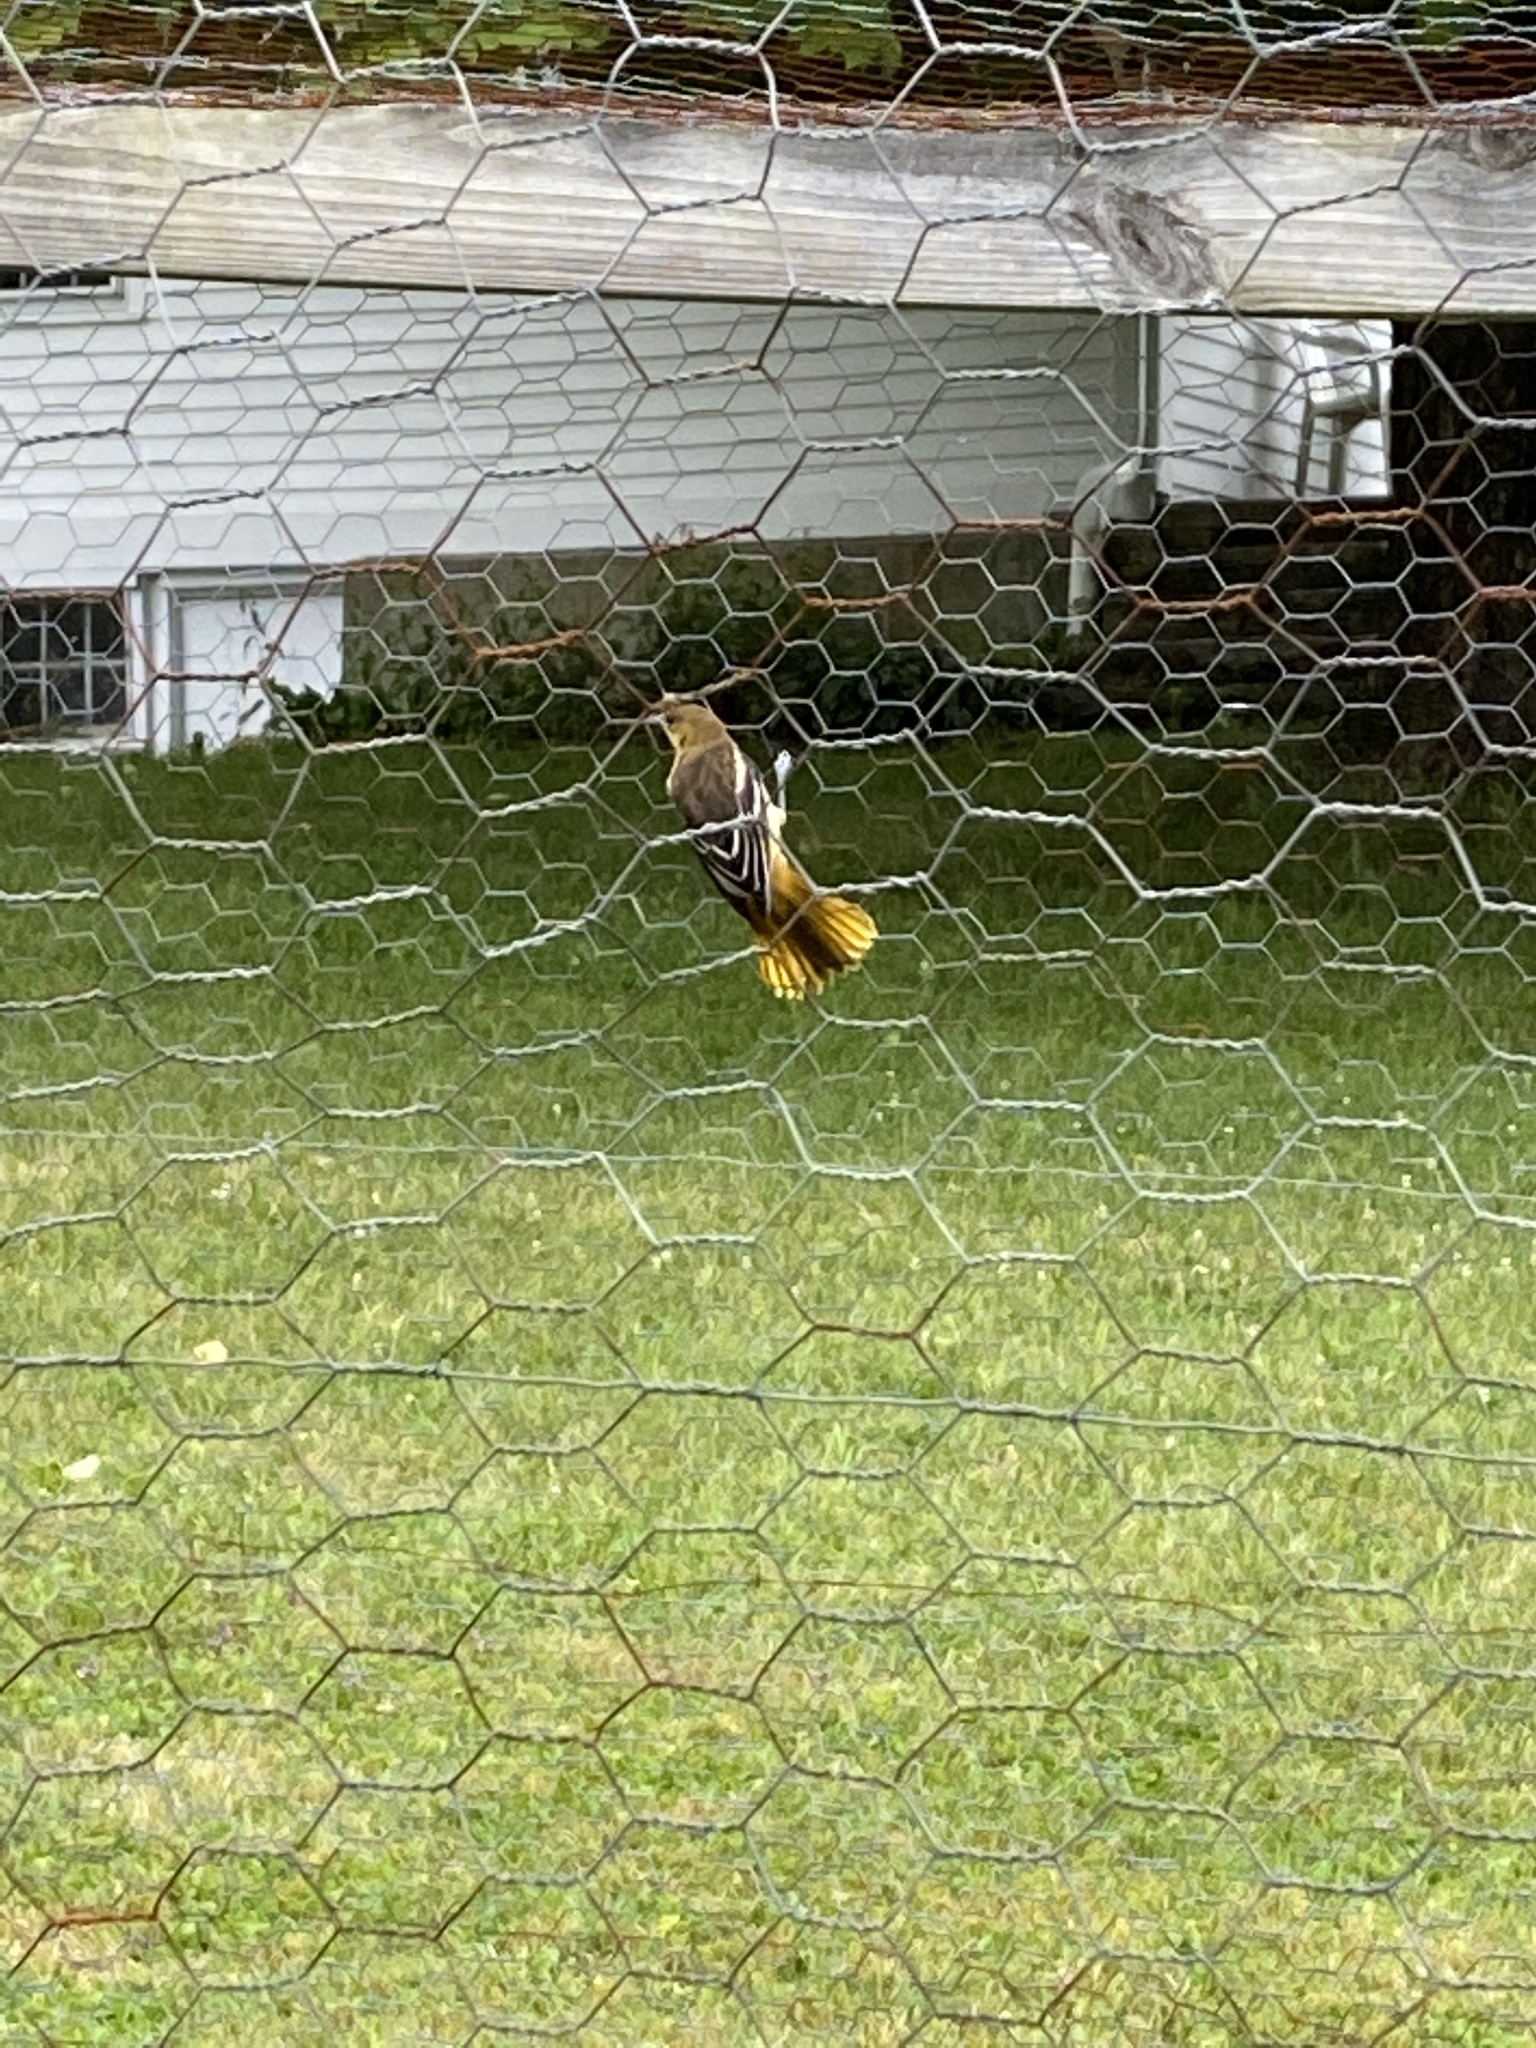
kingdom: Animalia
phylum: Chordata
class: Aves
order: Passeriformes
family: Icteridae
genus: Icterus
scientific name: Icterus galbula
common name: Baltimore oriole
